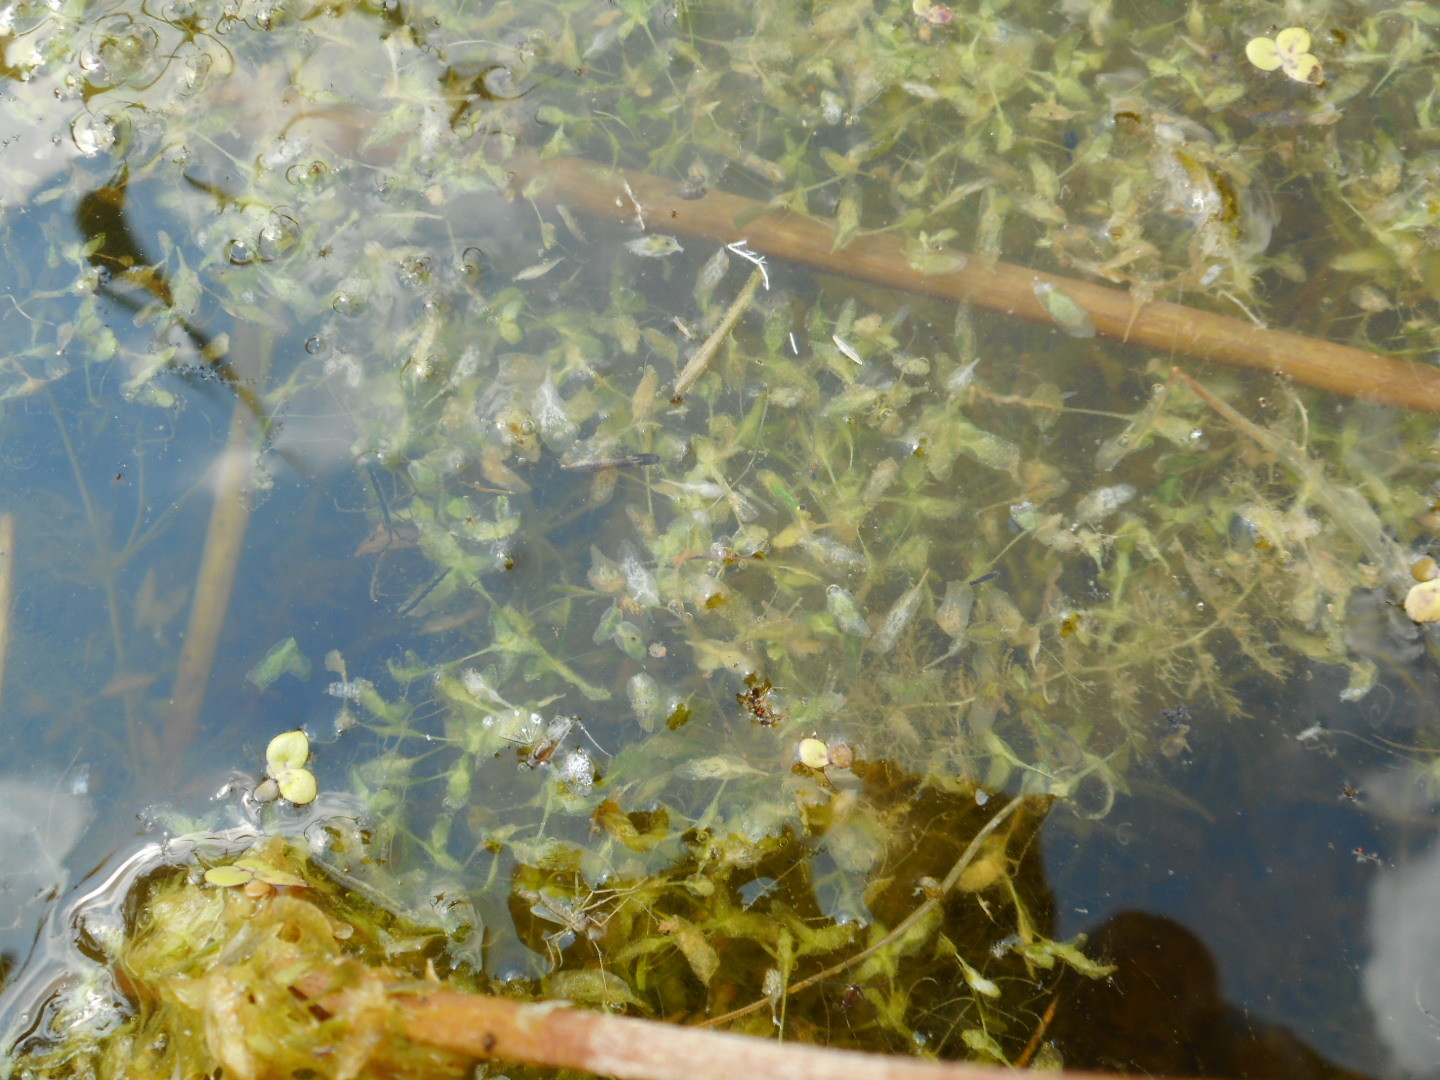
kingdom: Plantae
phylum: Tracheophyta
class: Liliopsida
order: Alismatales
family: Araceae
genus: Lemna
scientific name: Lemna trisulca
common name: Ivy-leaved duckweed
